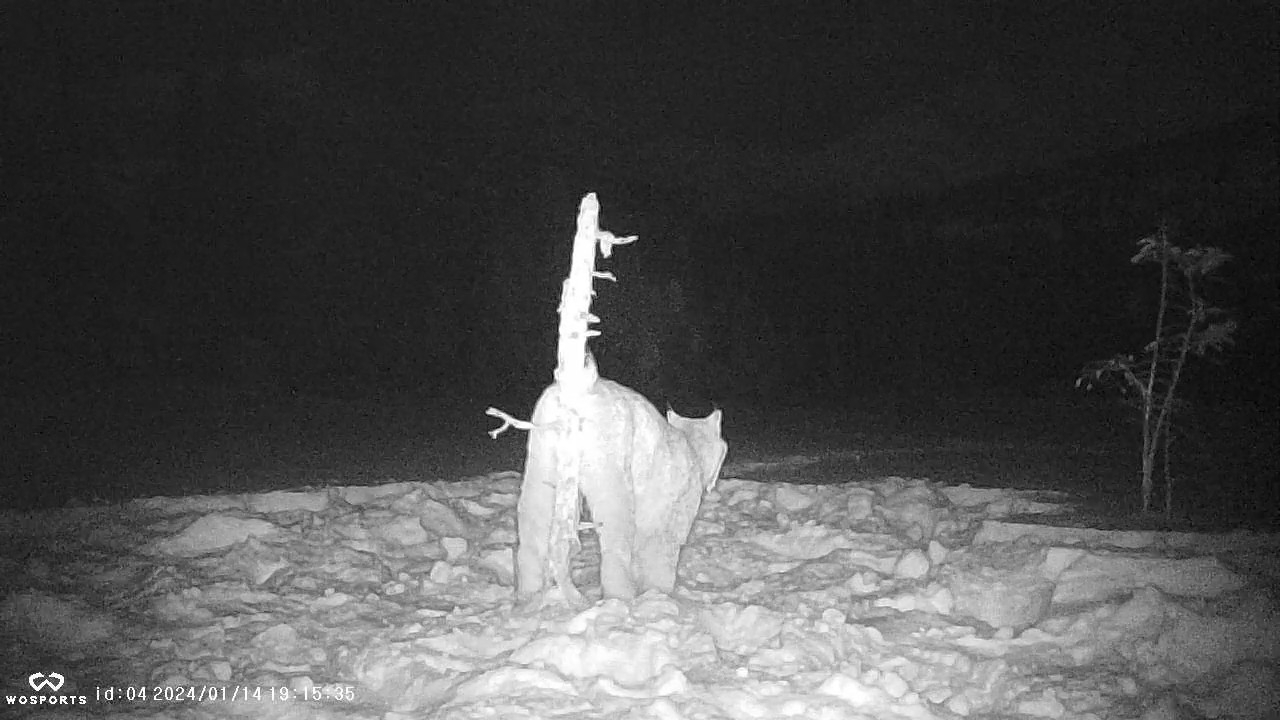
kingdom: Animalia
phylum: Chordata
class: Mammalia
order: Carnivora
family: Felidae
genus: Lynx
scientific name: Lynx canadensis
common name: Canadian lynx
